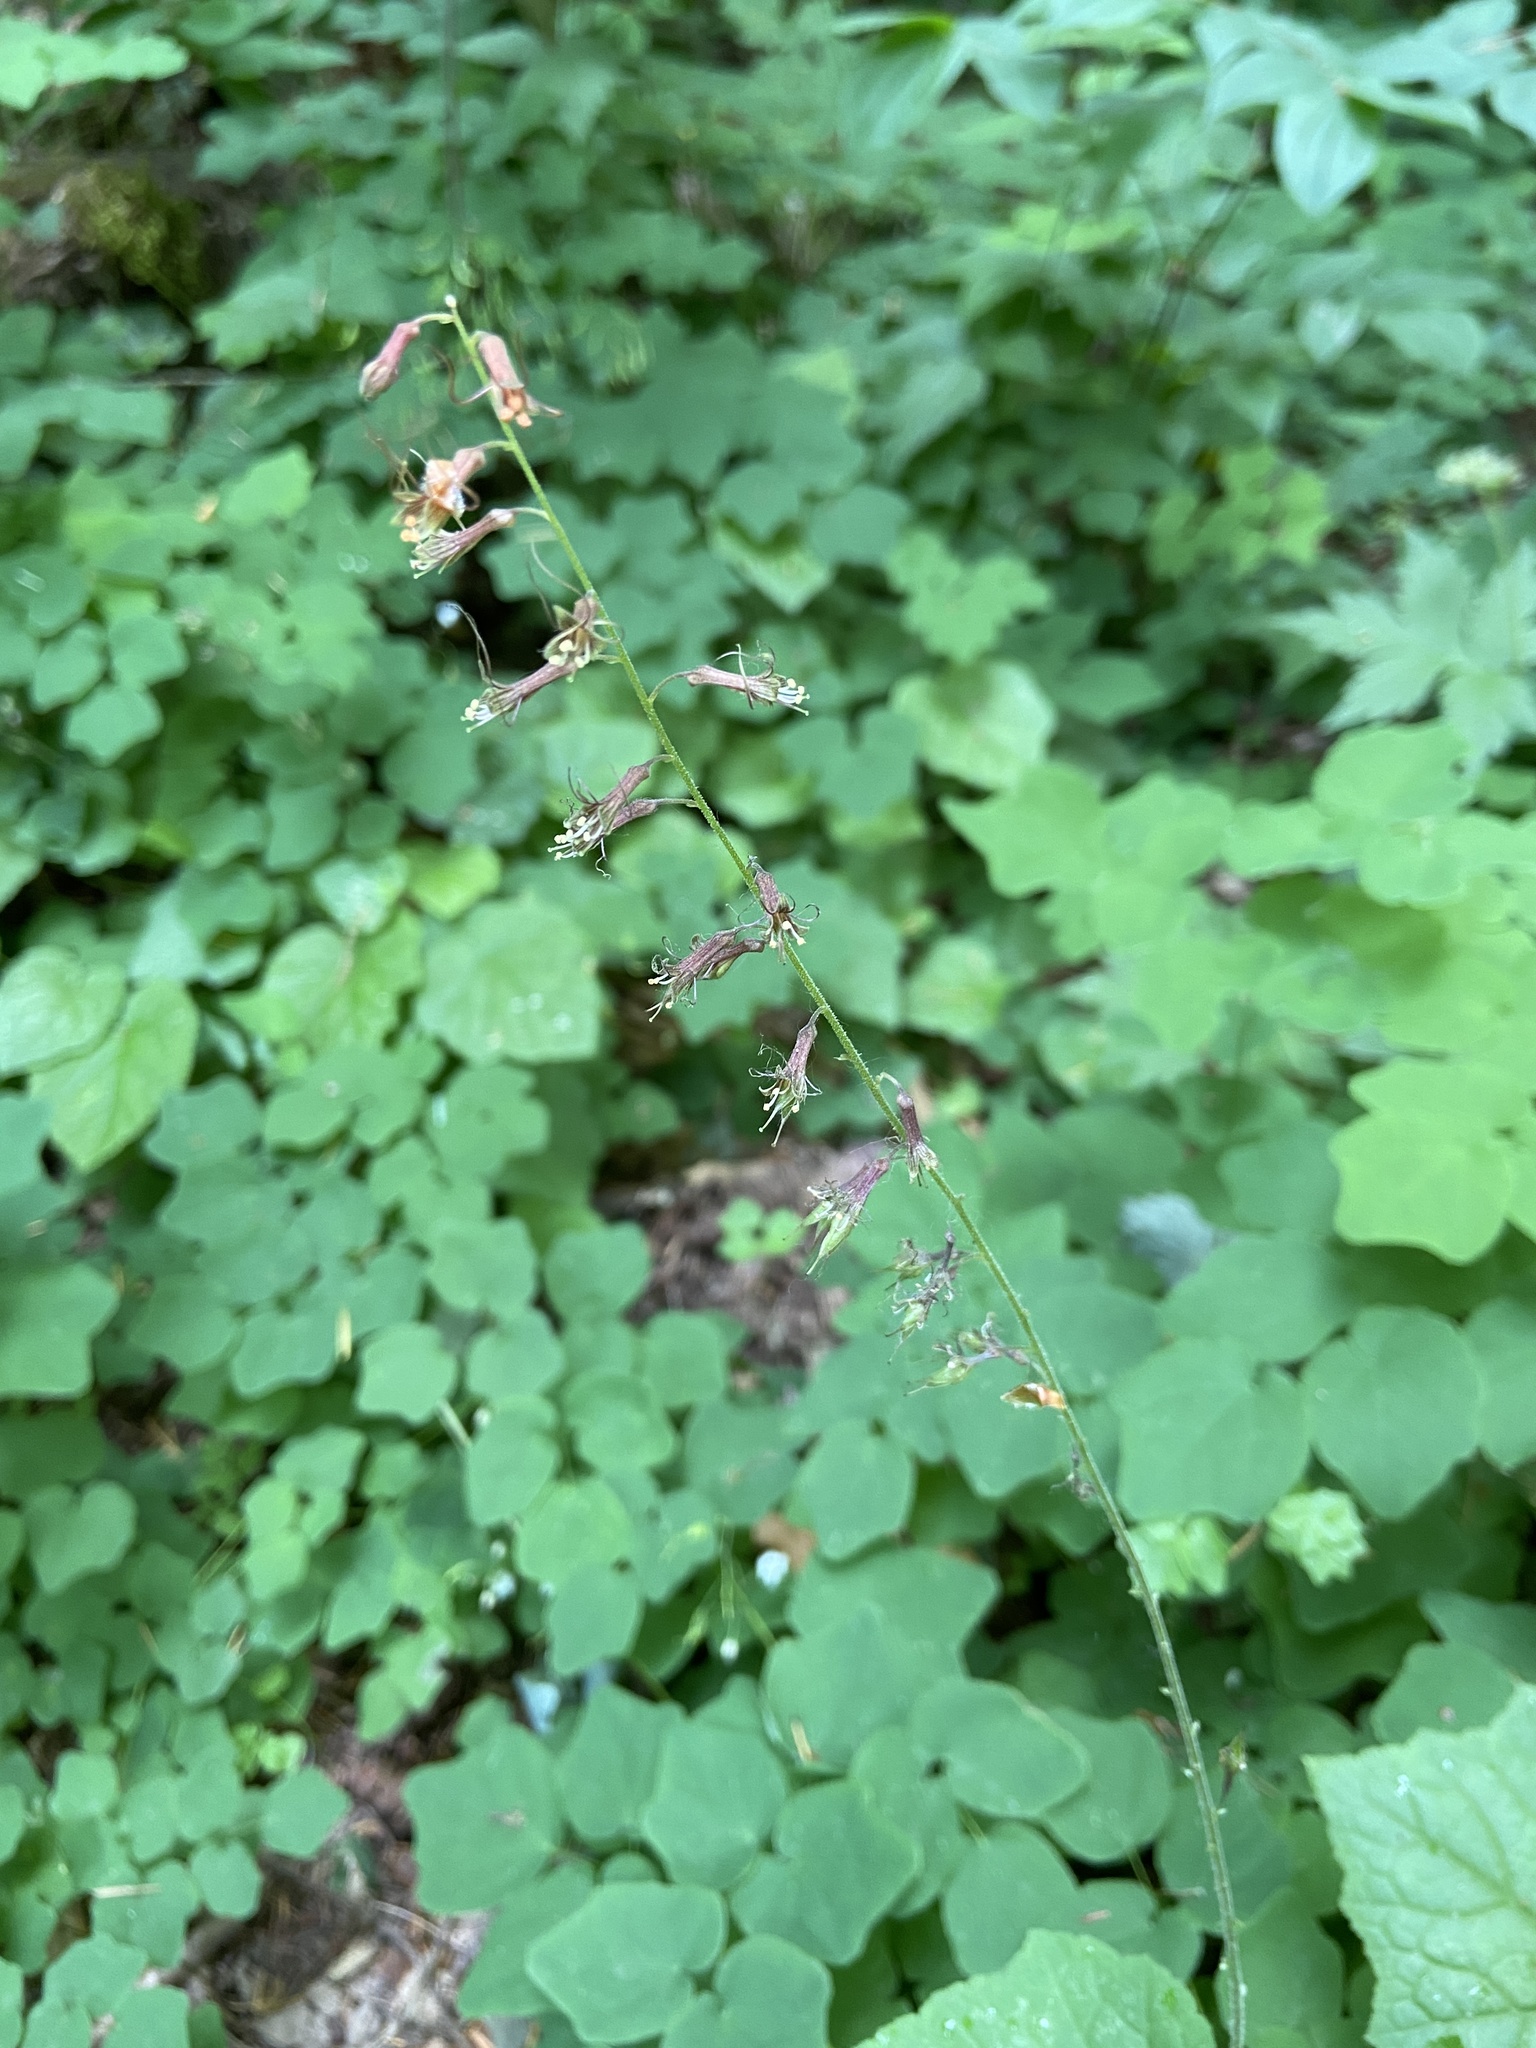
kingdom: Plantae
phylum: Tracheophyta
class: Magnoliopsida
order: Saxifragales
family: Saxifragaceae
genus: Tolmiea
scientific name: Tolmiea menziesii
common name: Pick-a-back-plant
